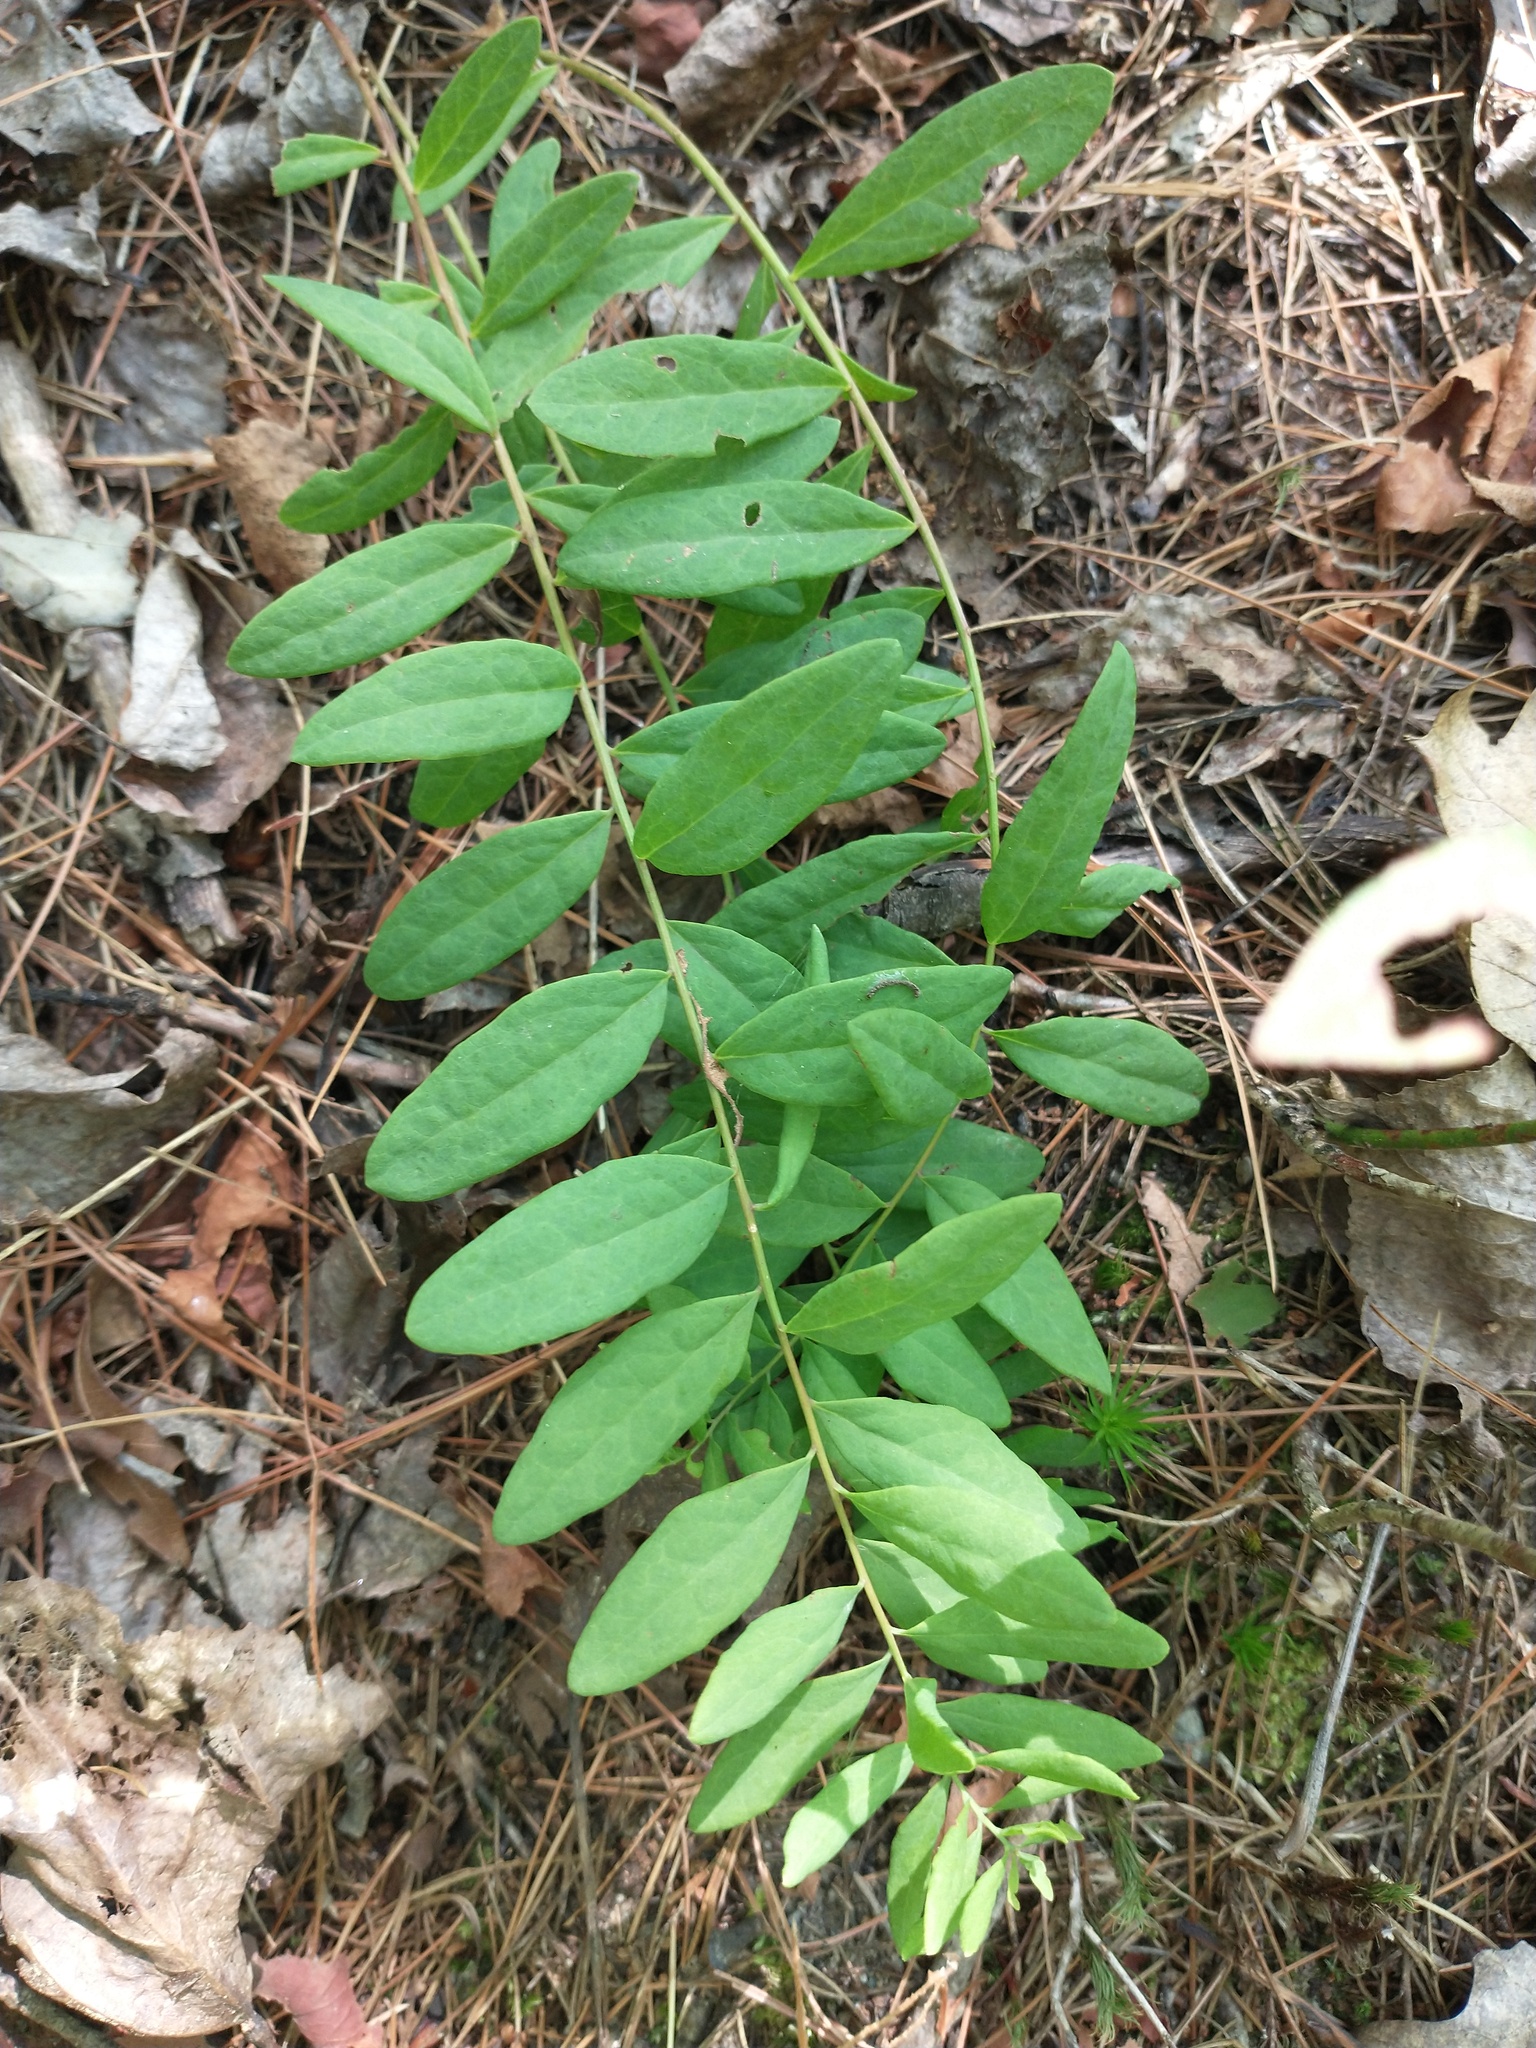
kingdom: Plantae
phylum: Tracheophyta
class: Magnoliopsida
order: Santalales
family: Comandraceae
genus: Comandra
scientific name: Comandra umbellata
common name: Bastard toadflax
